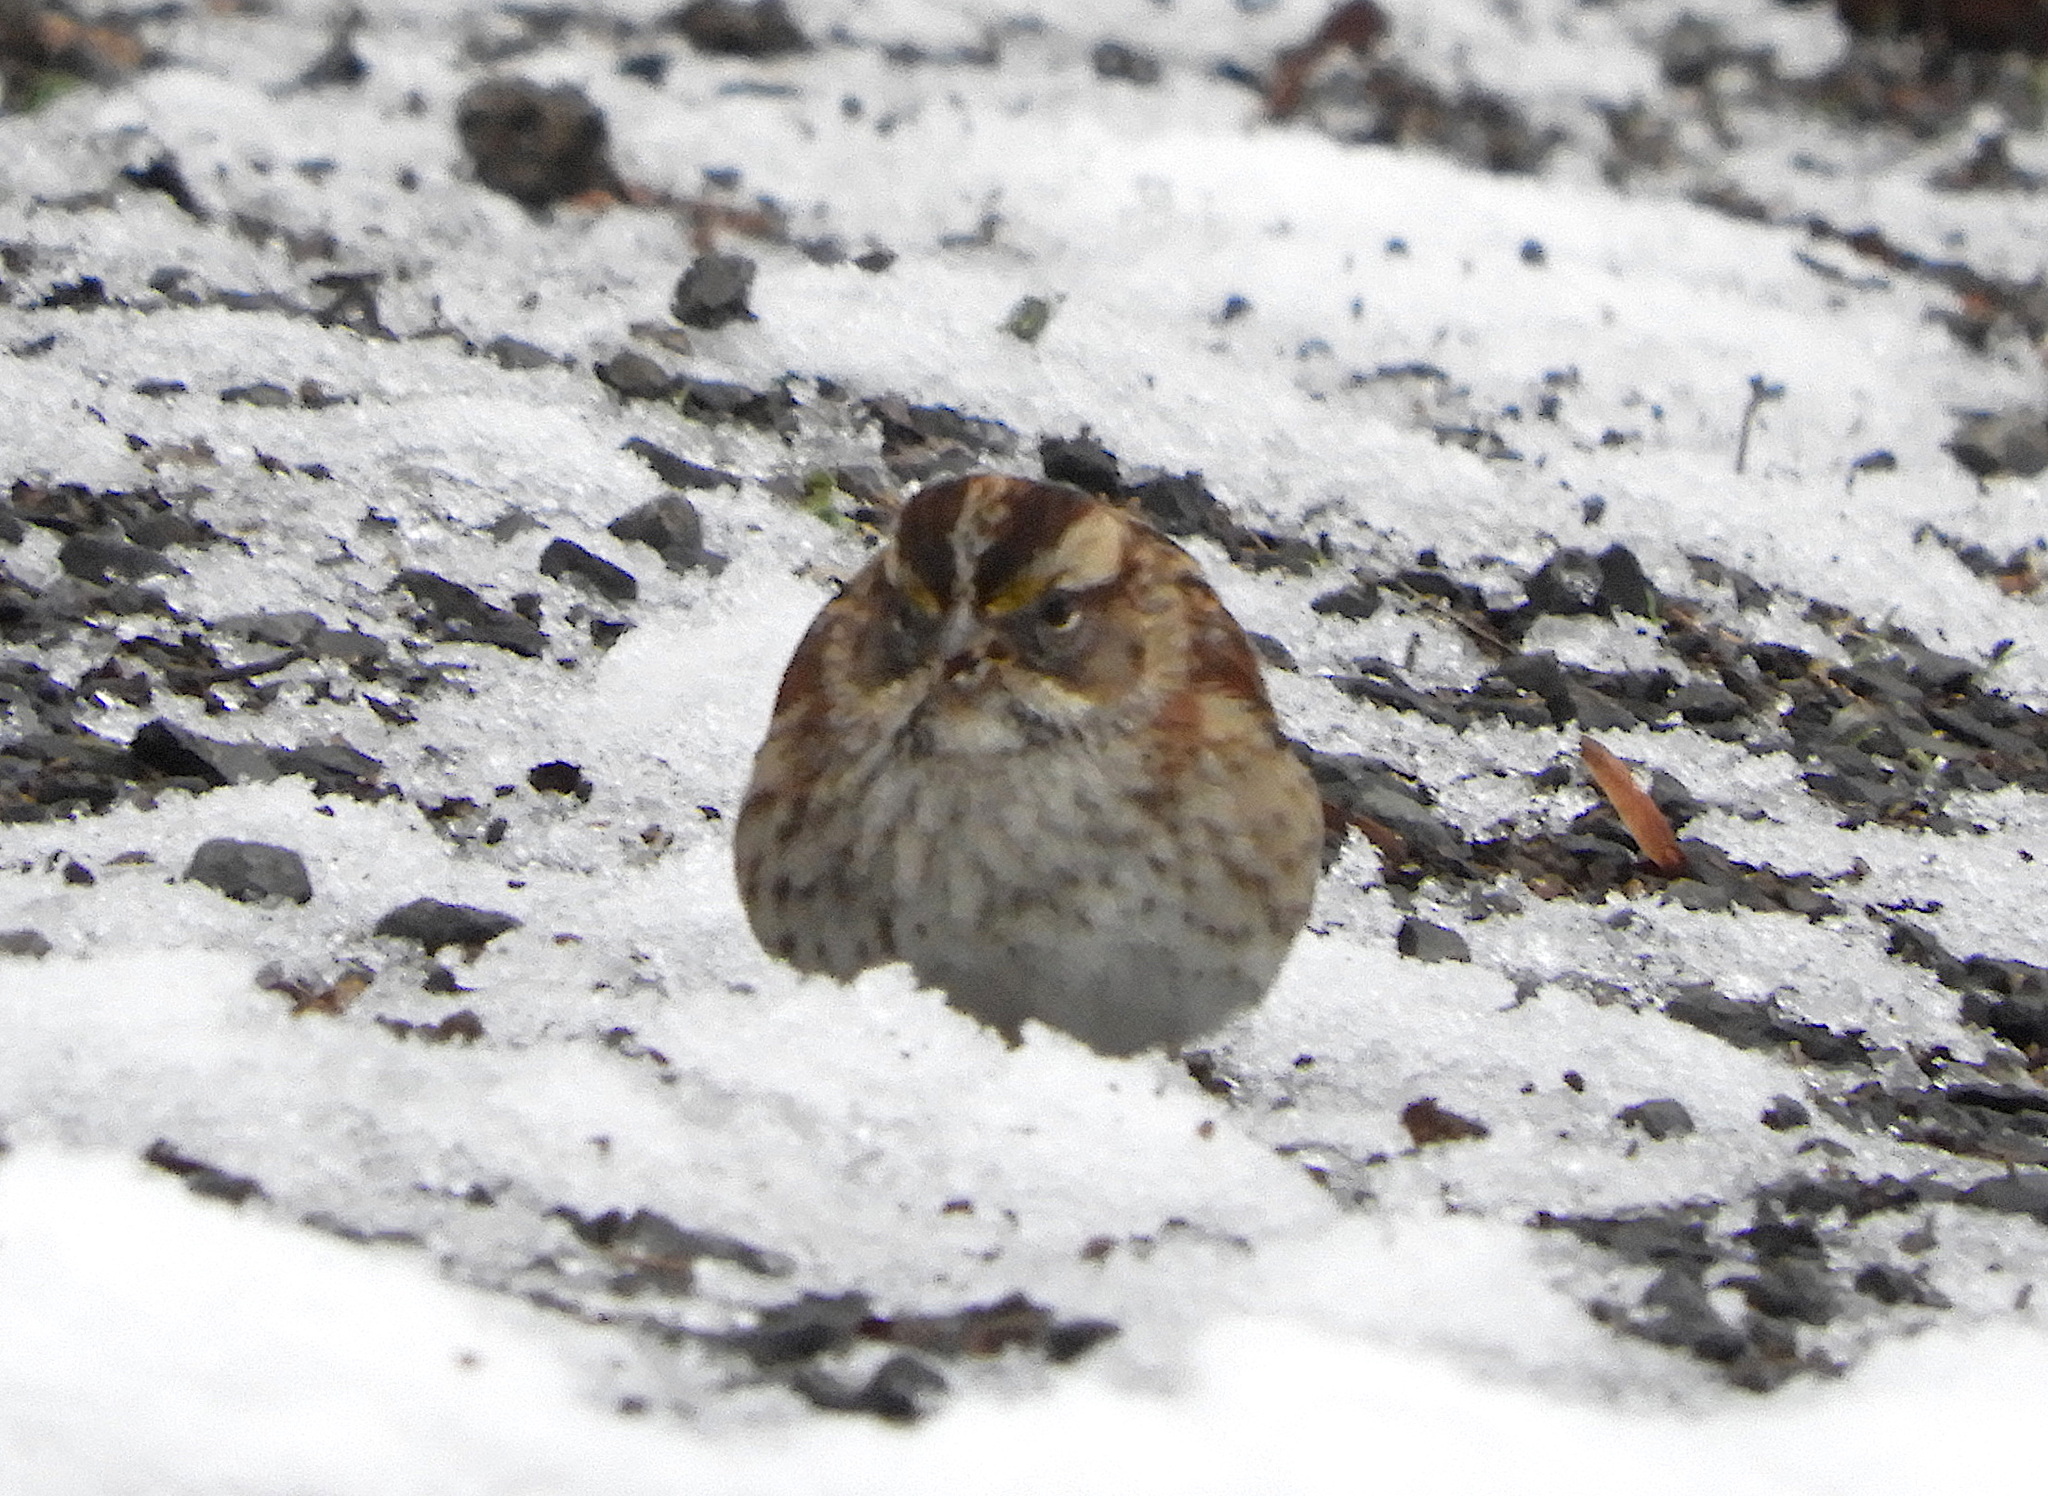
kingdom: Animalia
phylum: Chordata
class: Aves
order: Passeriformes
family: Passerellidae
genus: Zonotrichia
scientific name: Zonotrichia albicollis
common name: White-throated sparrow
